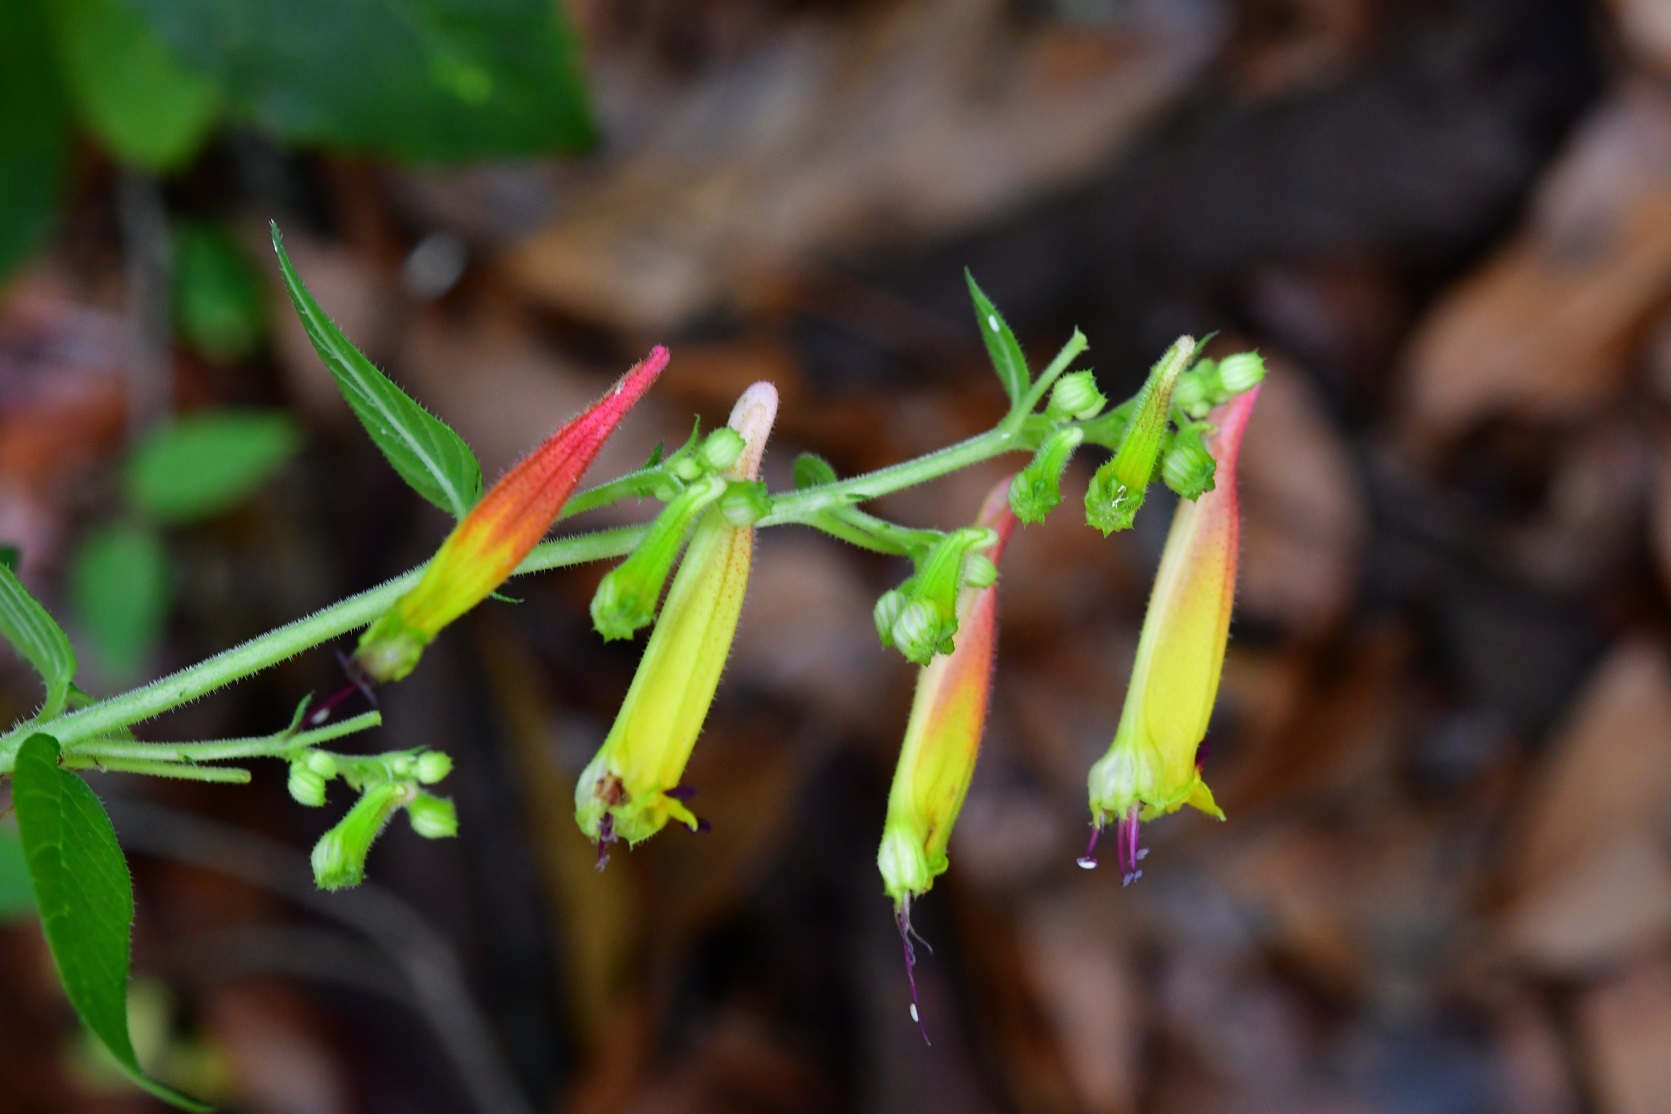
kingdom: Plantae
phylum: Tracheophyta
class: Magnoliopsida
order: Myrtales
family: Lythraceae
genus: Cuphea
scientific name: Cuphea cyanea
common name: Black-eyed cuphea
